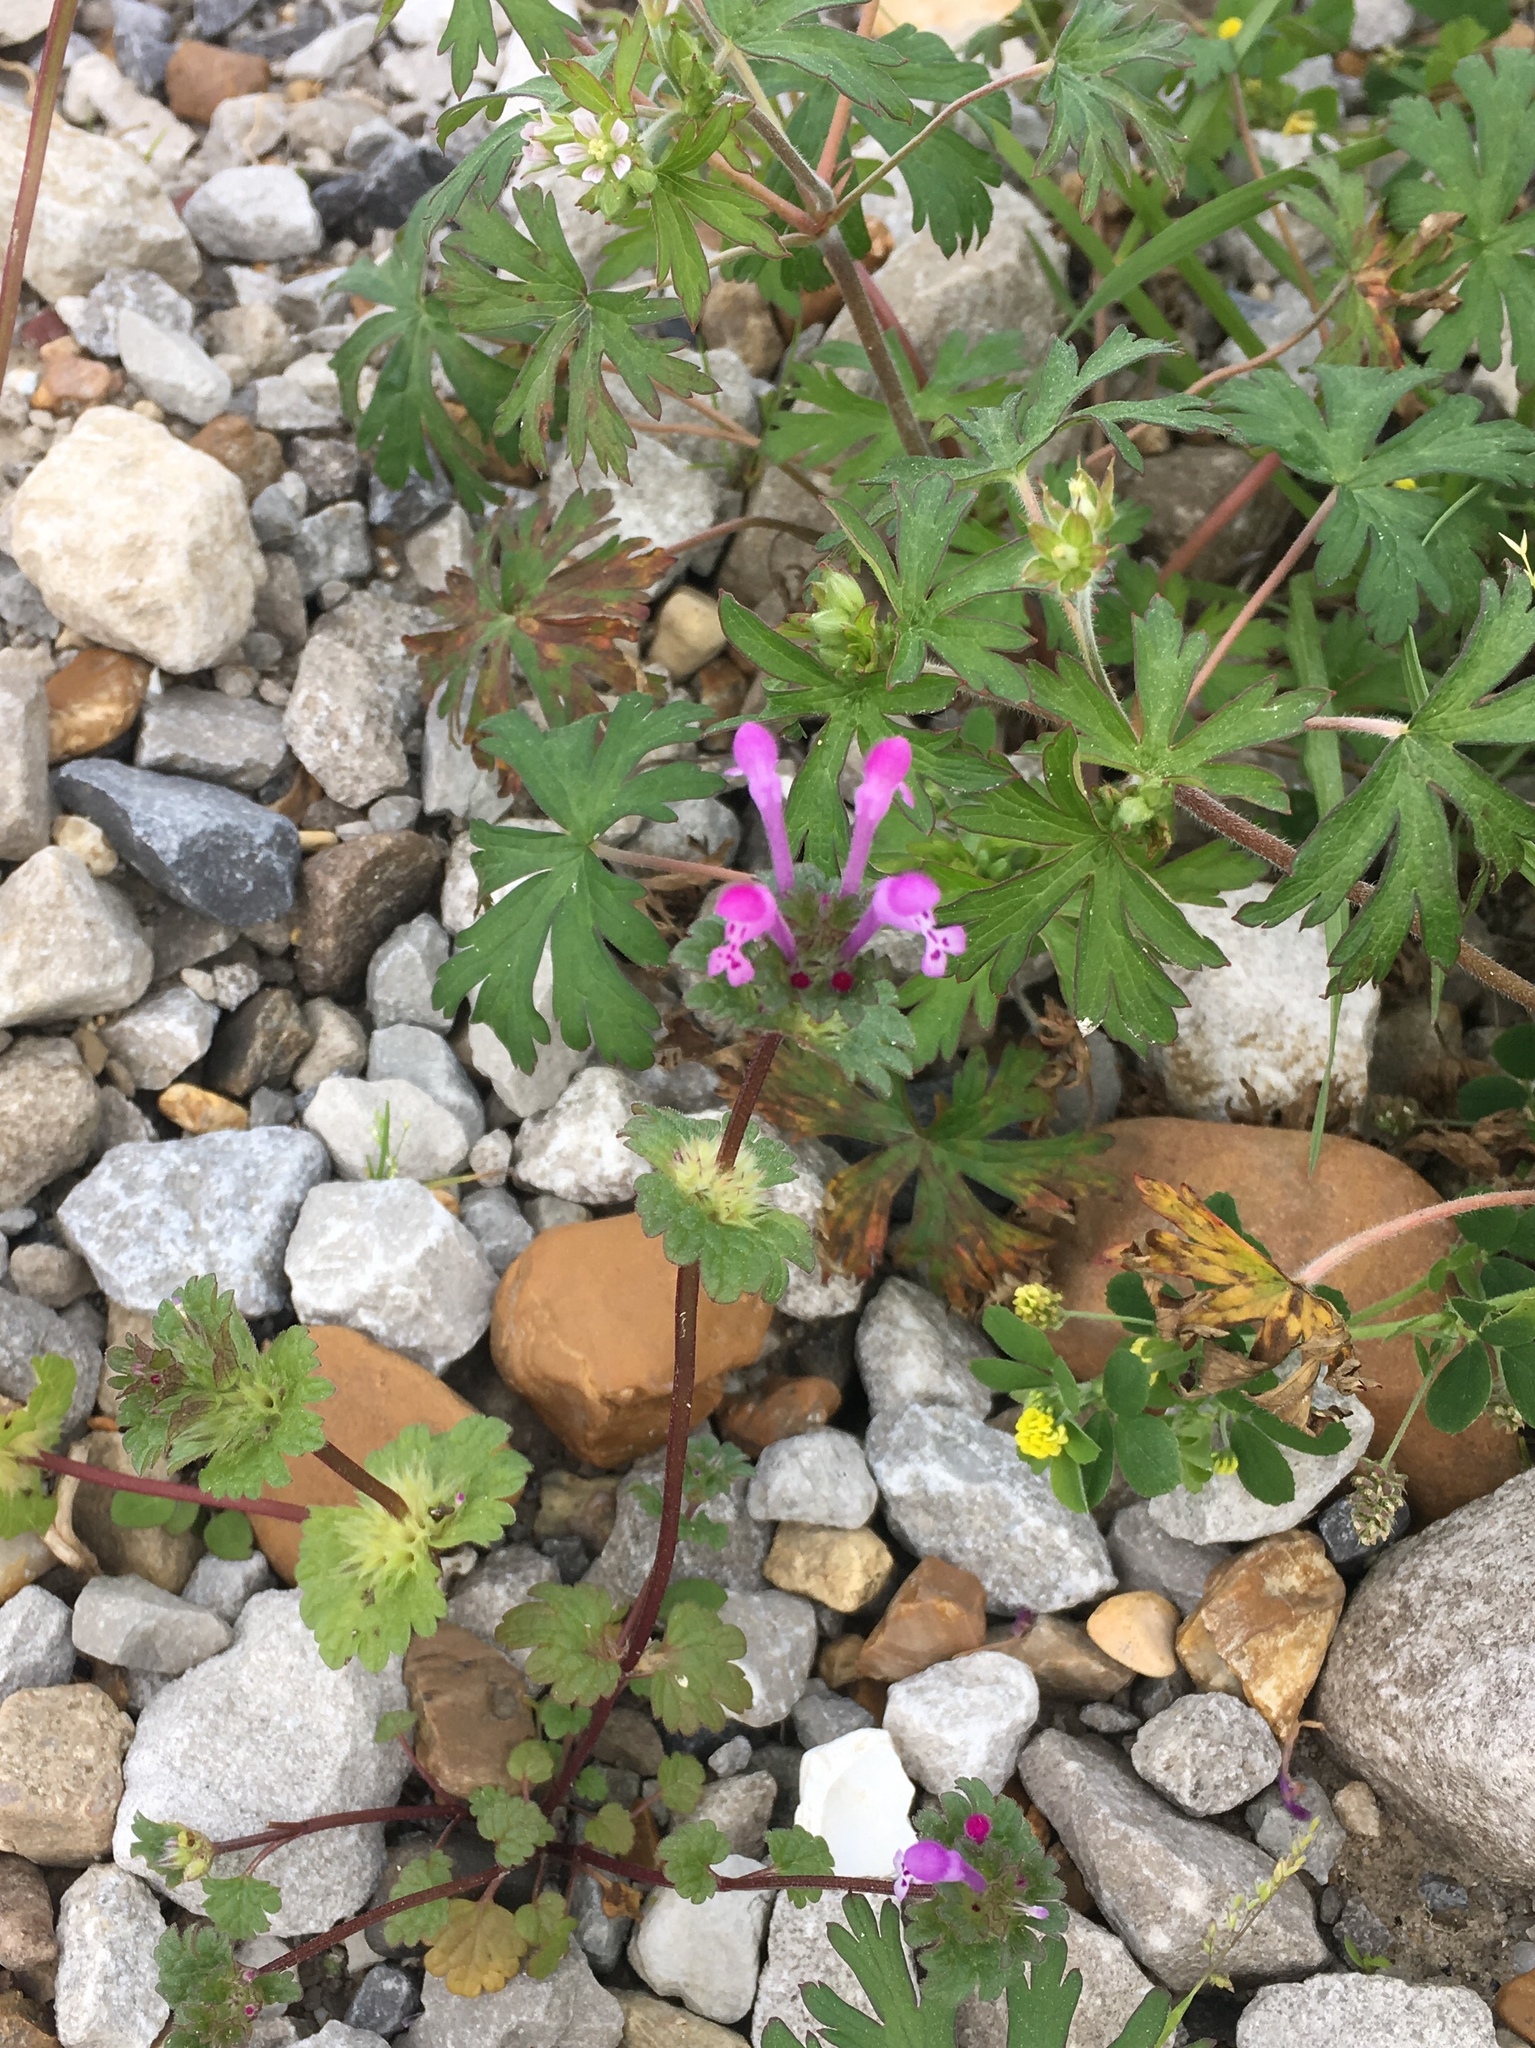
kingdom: Plantae
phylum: Tracheophyta
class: Magnoliopsida
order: Lamiales
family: Lamiaceae
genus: Lamium
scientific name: Lamium amplexicaule
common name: Henbit dead-nettle
